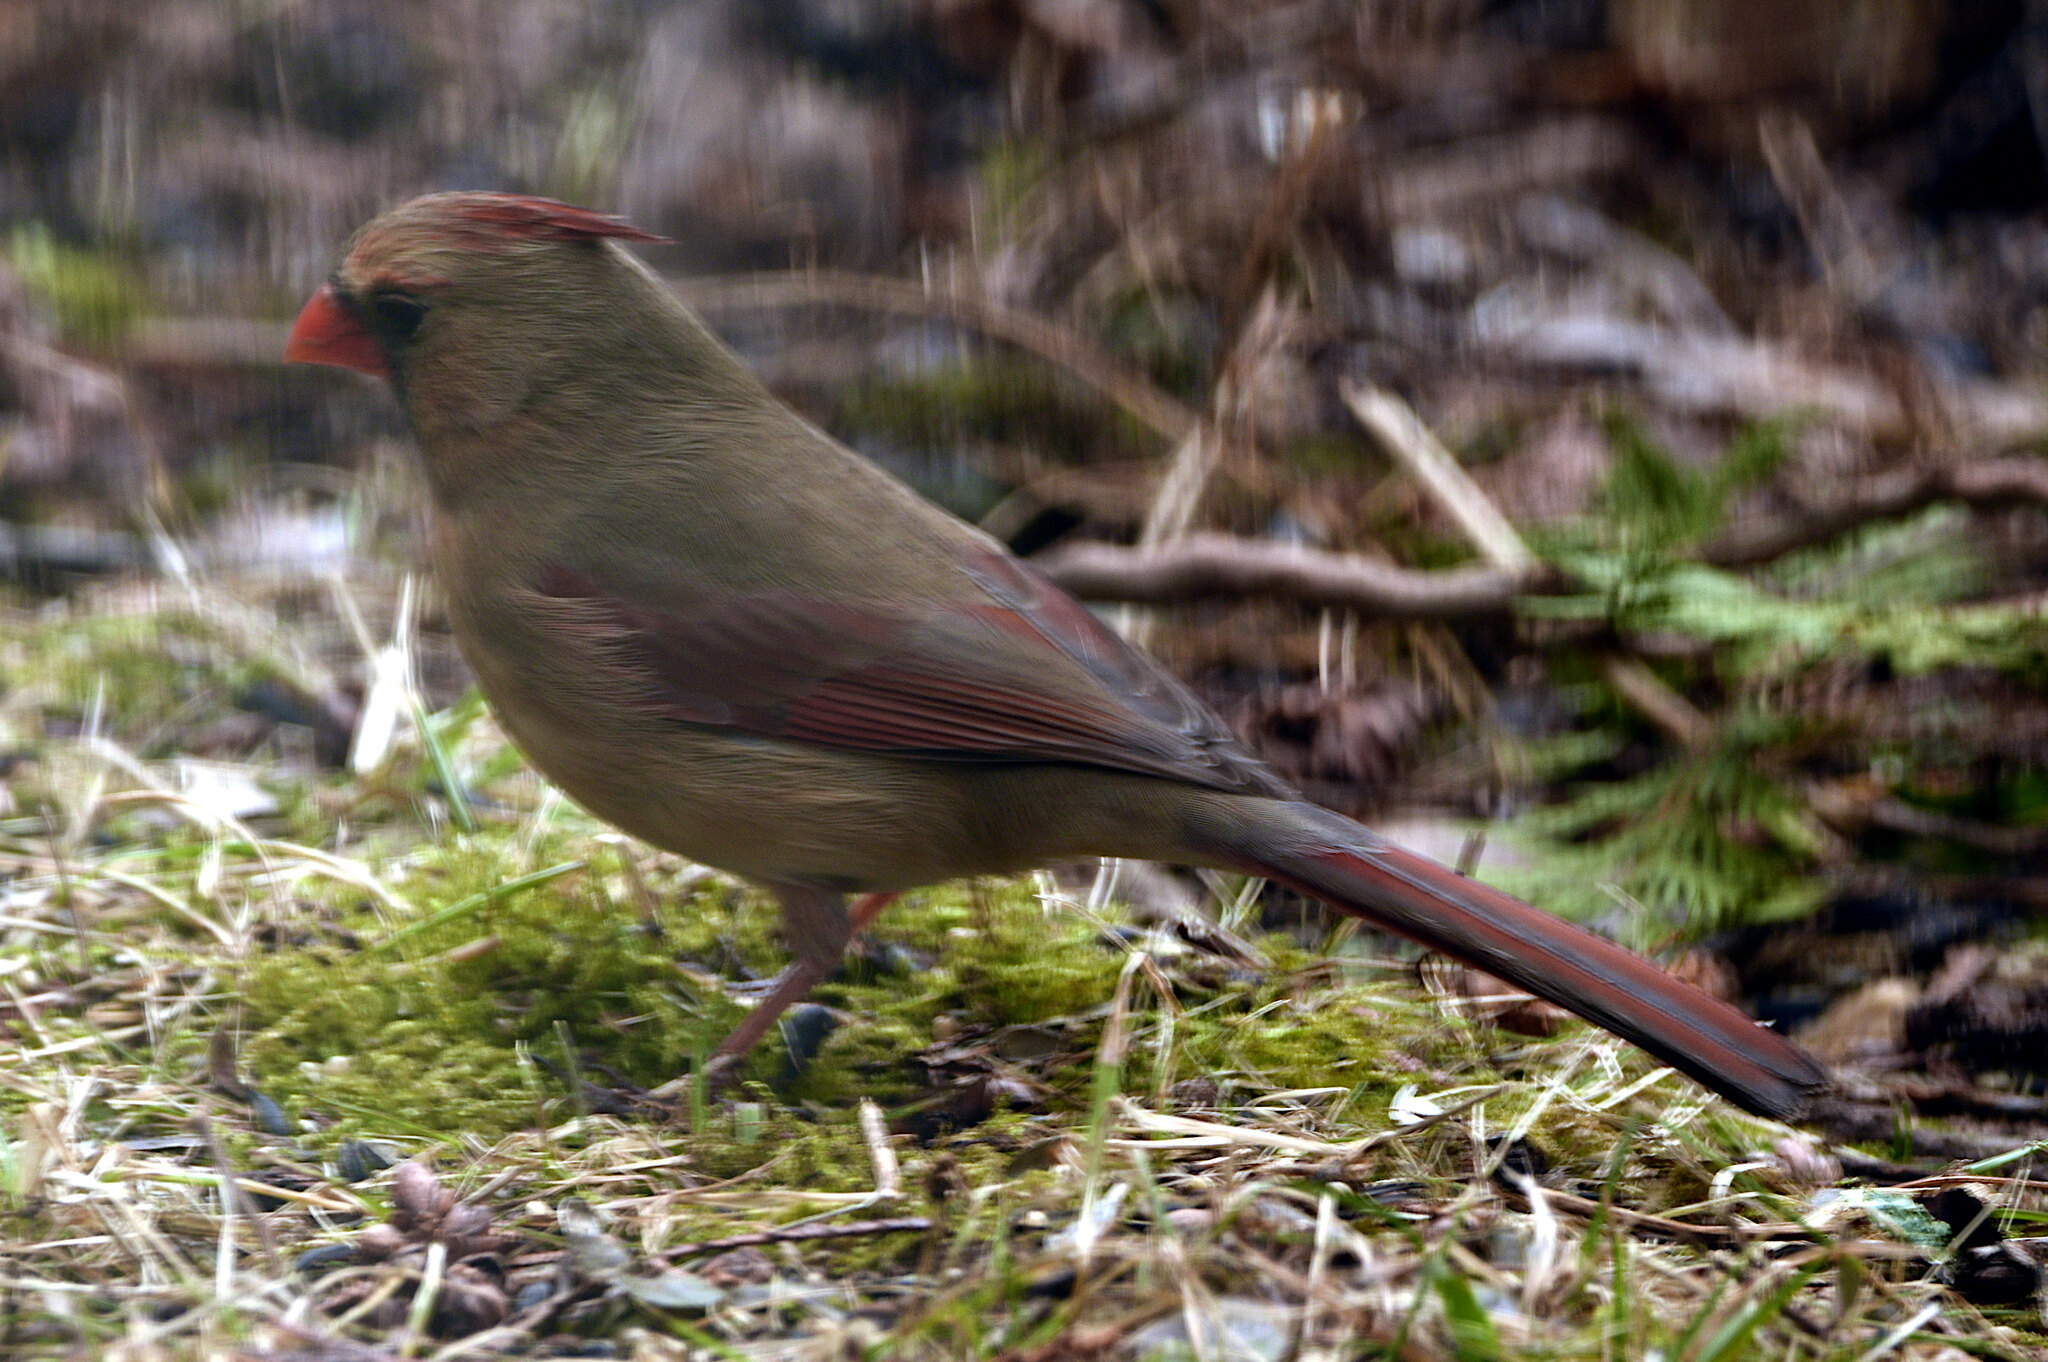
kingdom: Animalia
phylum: Chordata
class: Aves
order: Passeriformes
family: Cardinalidae
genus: Cardinalis
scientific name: Cardinalis cardinalis
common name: Northern cardinal
